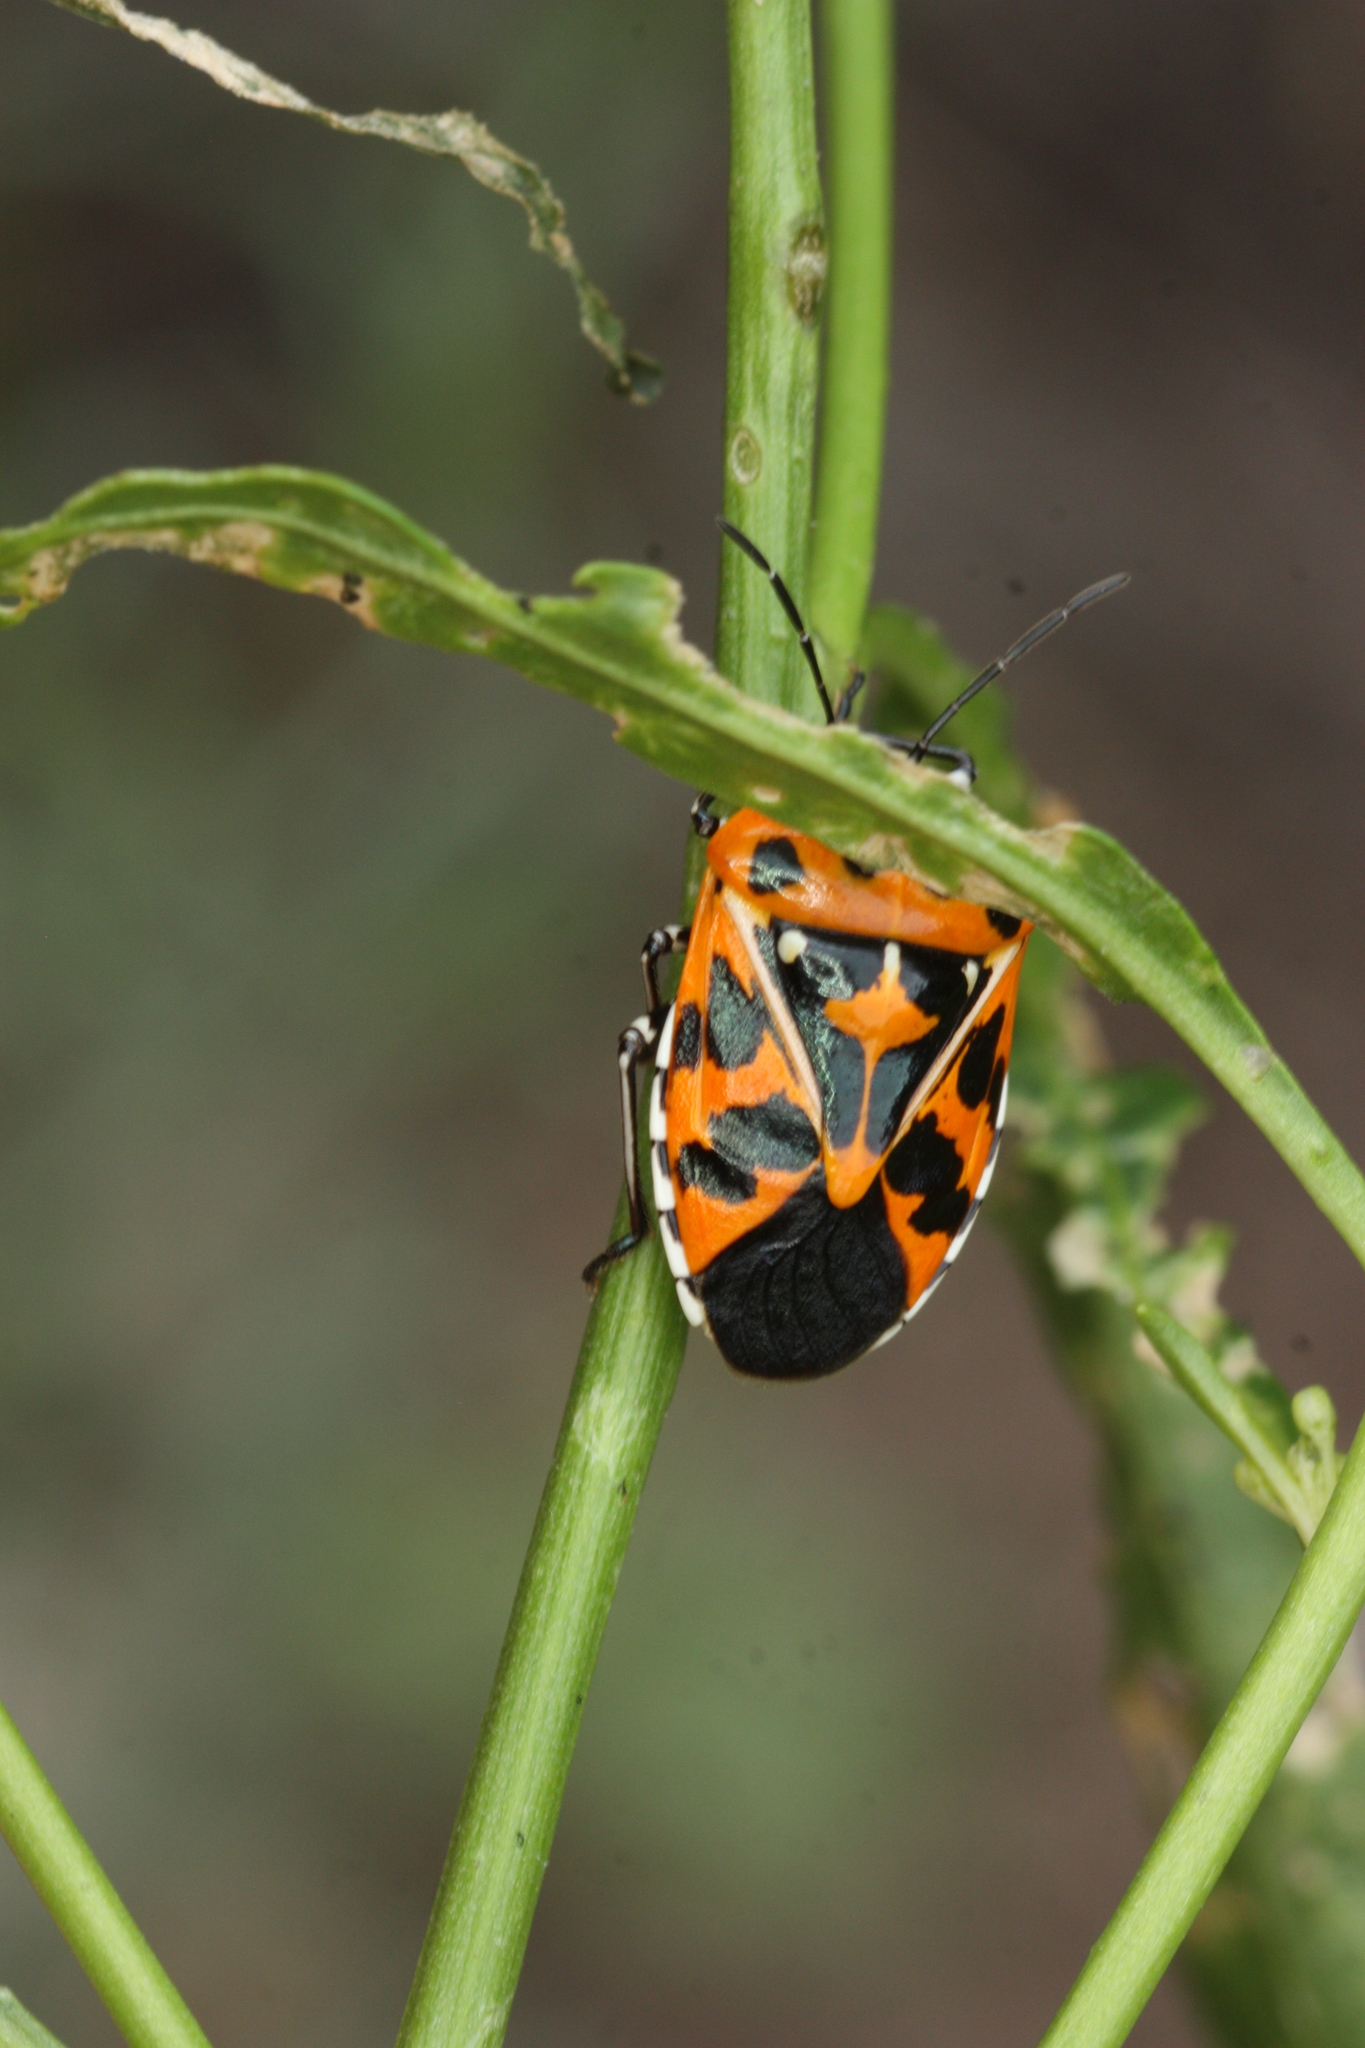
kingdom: Animalia
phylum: Arthropoda
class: Insecta
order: Hemiptera
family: Pentatomidae
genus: Murgantia
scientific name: Murgantia histrionica
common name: Harlequin bug
